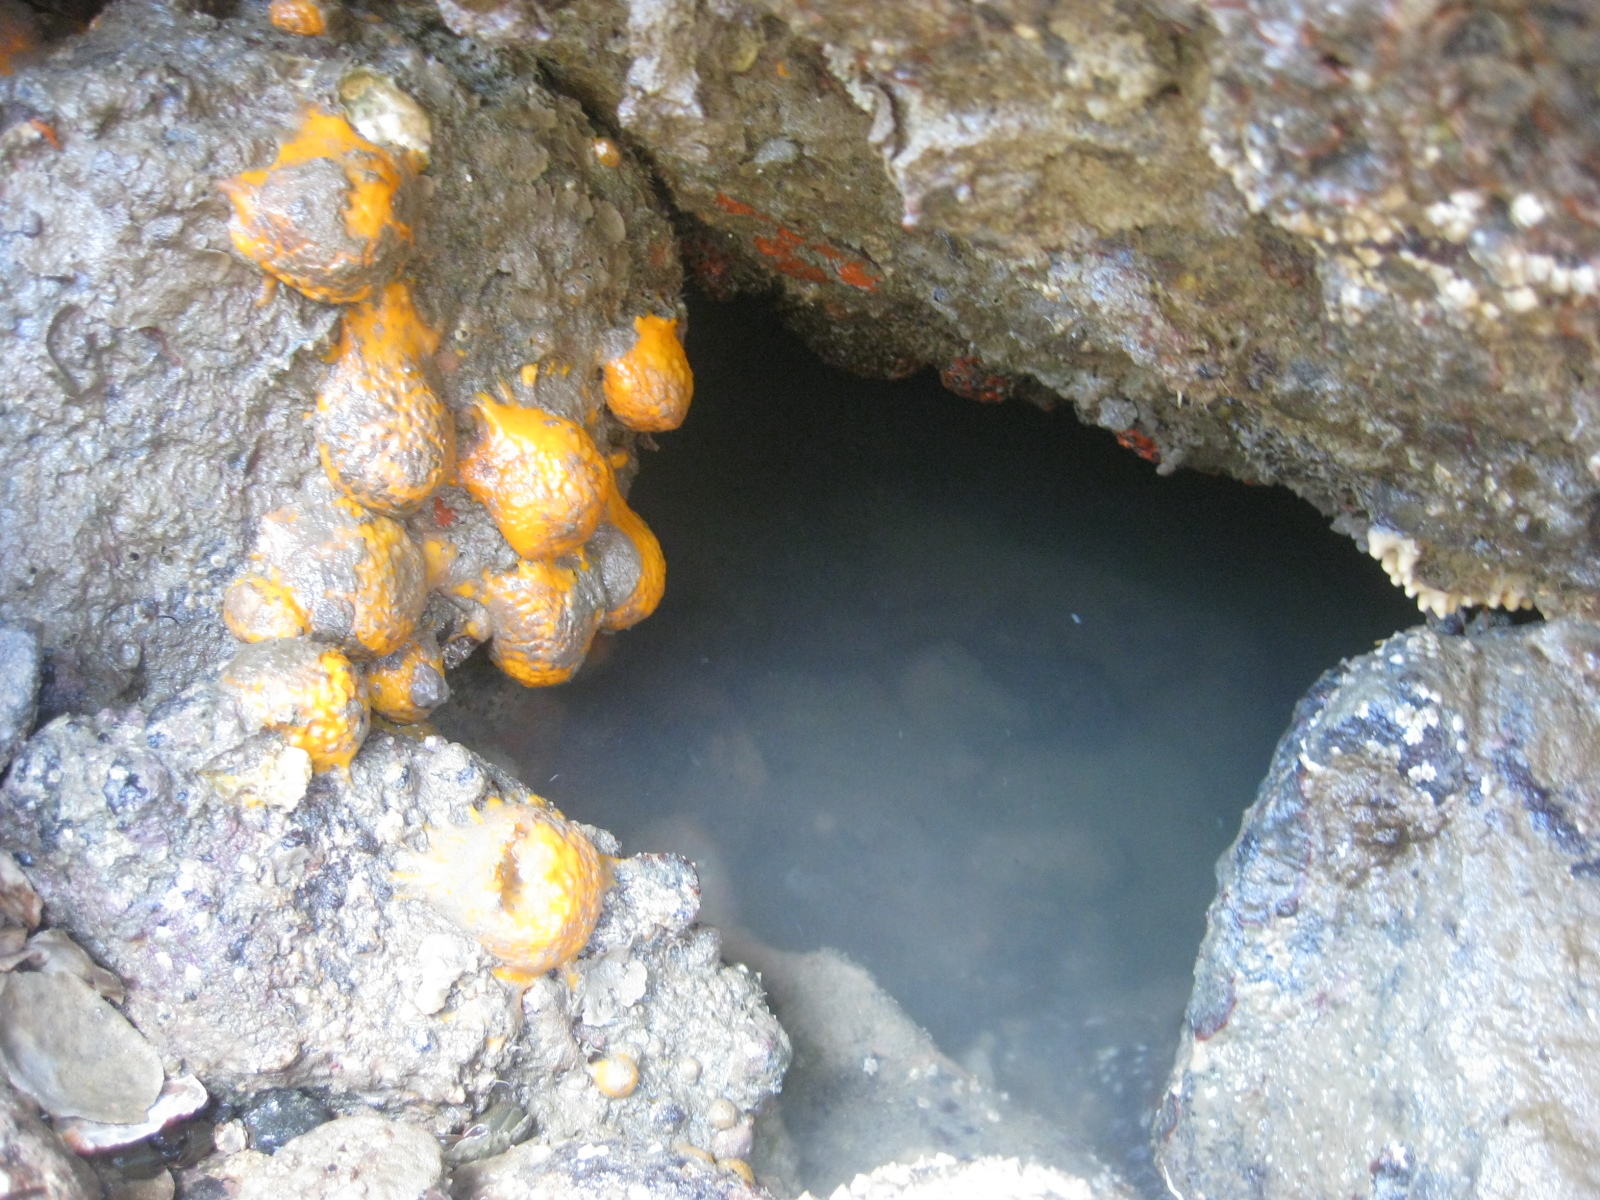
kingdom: Animalia
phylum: Porifera
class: Demospongiae
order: Tethyida
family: Tethyidae
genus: Tethya
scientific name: Tethya burtoni
